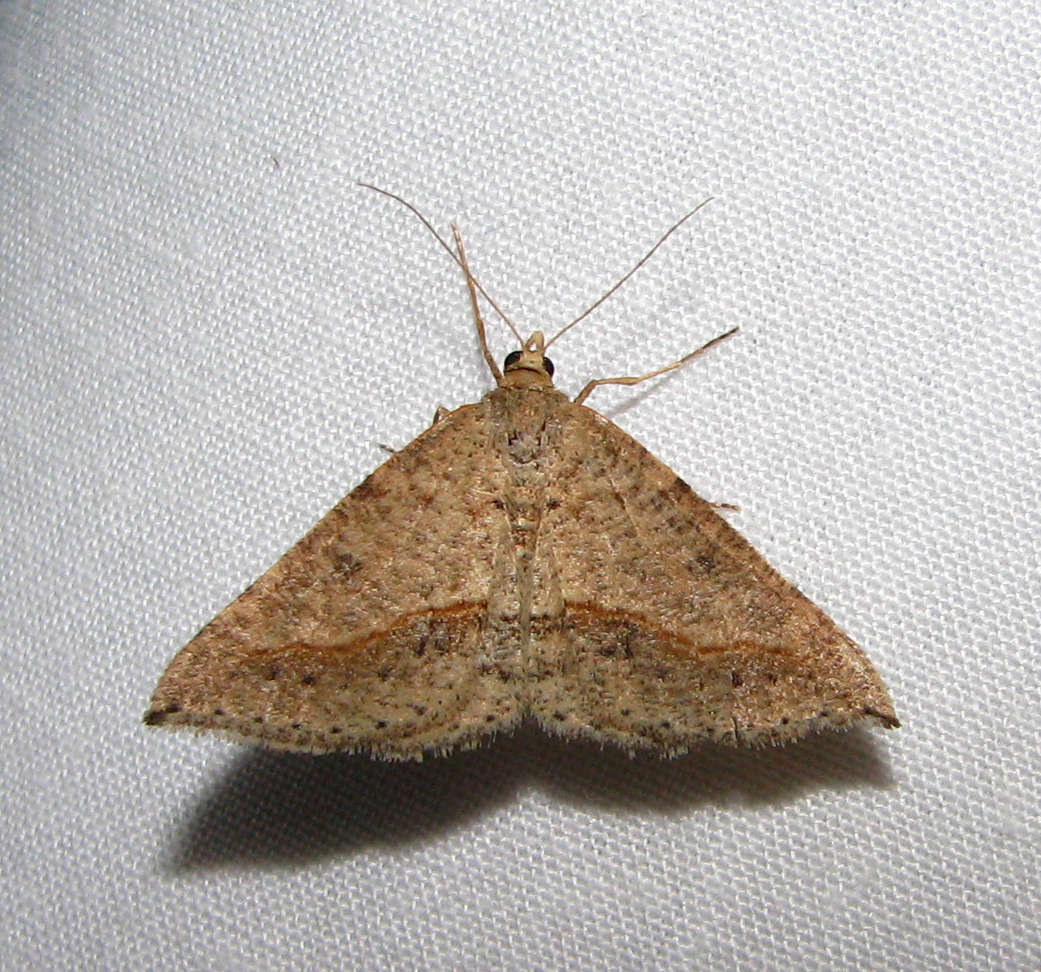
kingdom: Animalia
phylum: Arthropoda
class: Insecta
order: Lepidoptera
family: Geometridae
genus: Taxeotis
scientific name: Taxeotis stereospila
